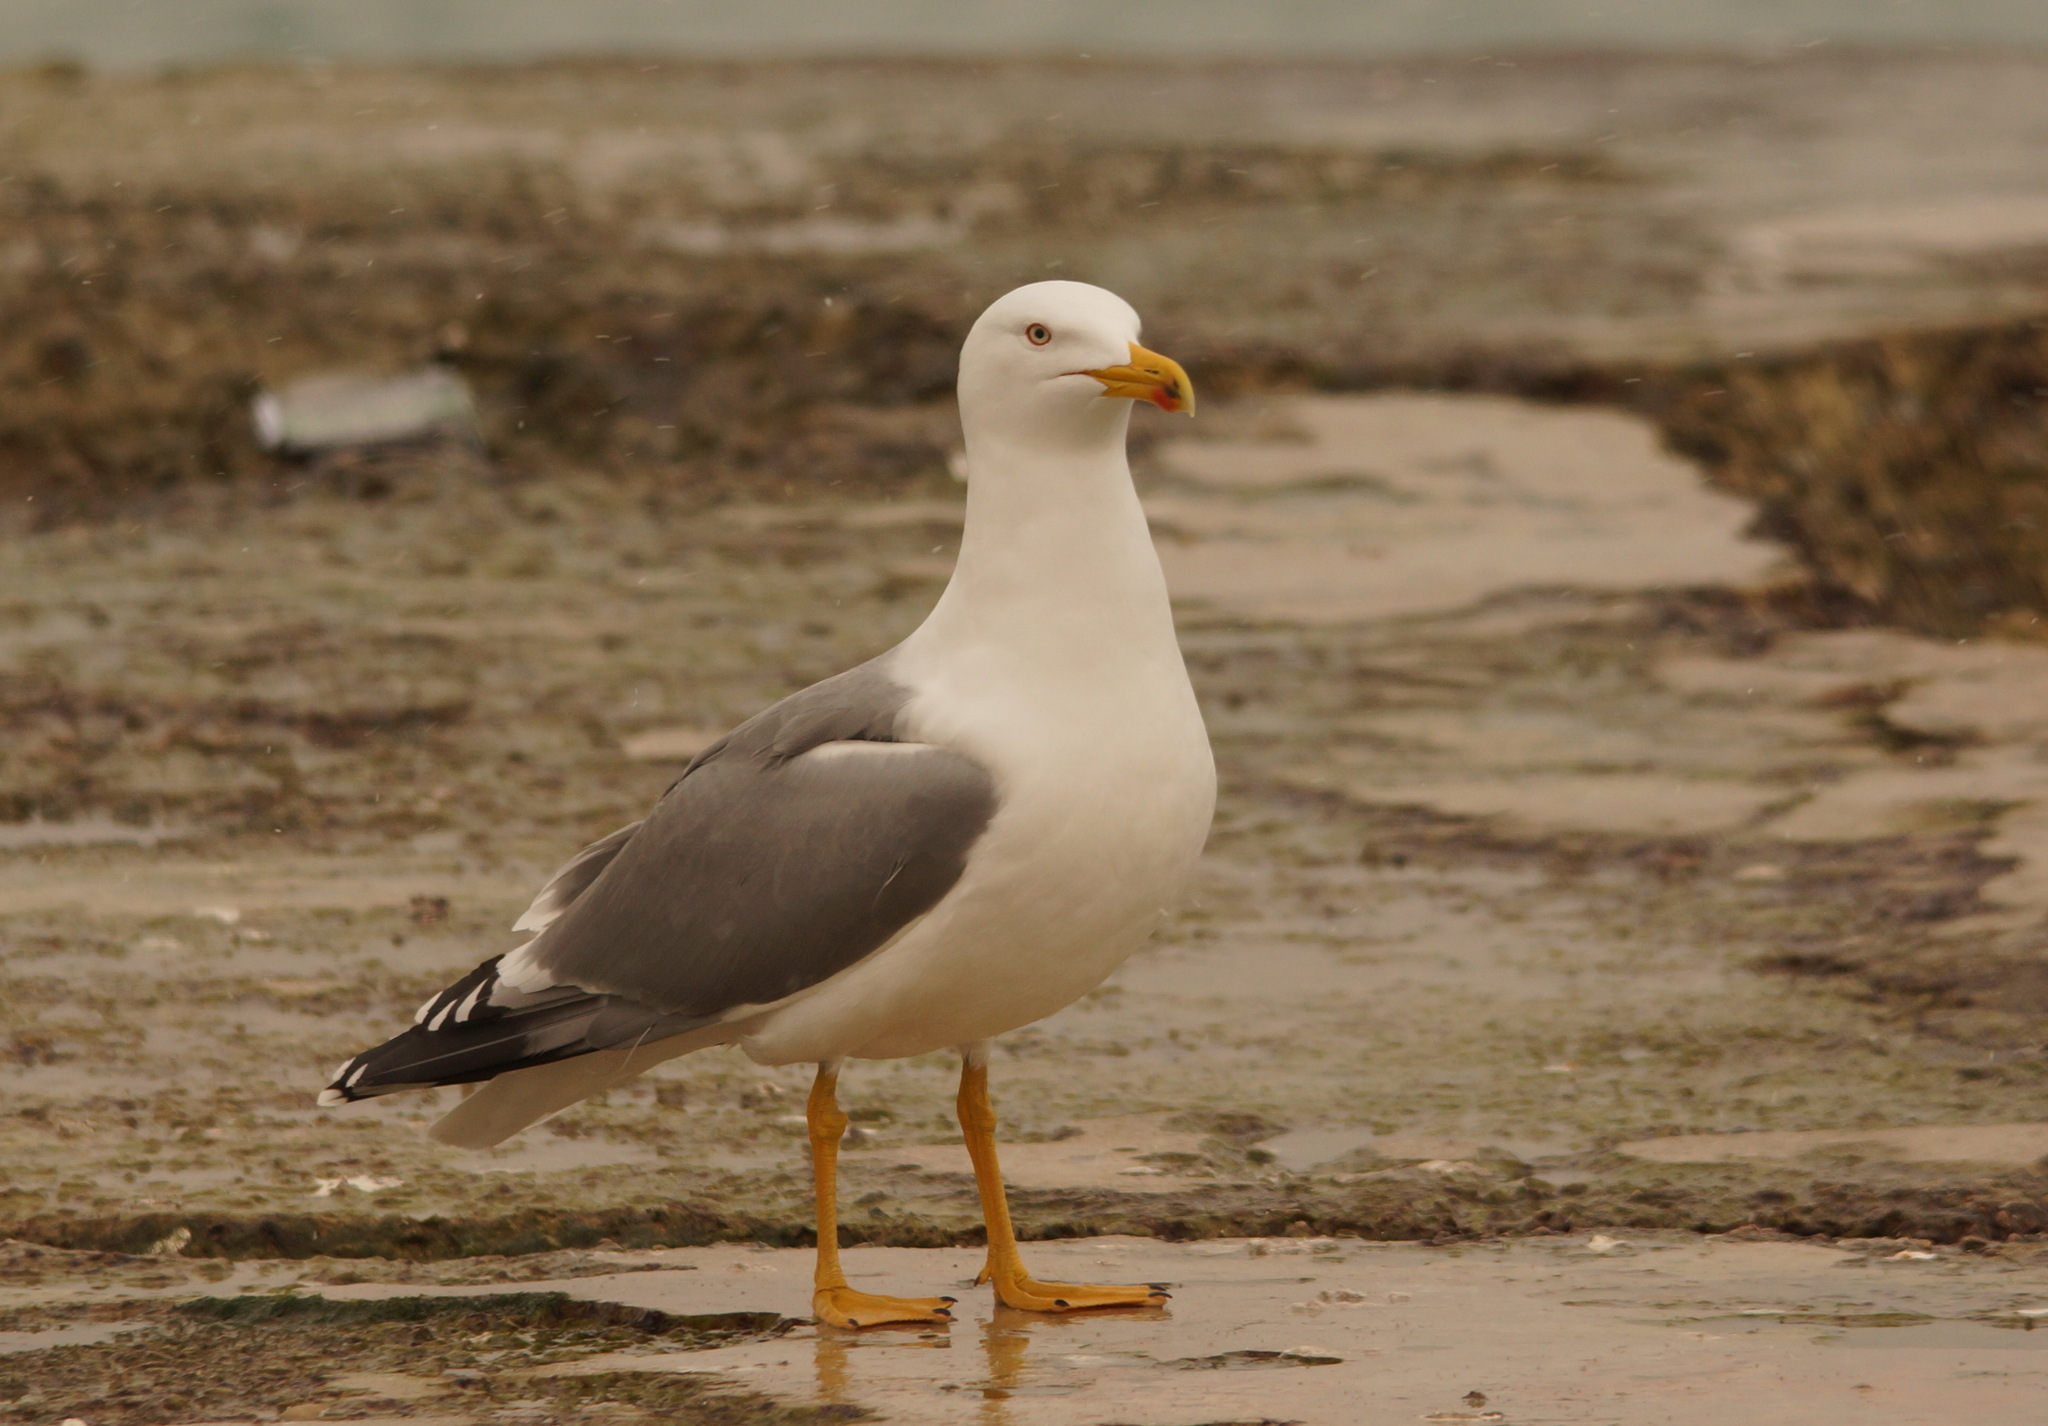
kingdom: Animalia
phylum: Chordata
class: Aves
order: Charadriiformes
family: Laridae
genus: Larus
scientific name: Larus michahellis
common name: Yellow-legged gull
